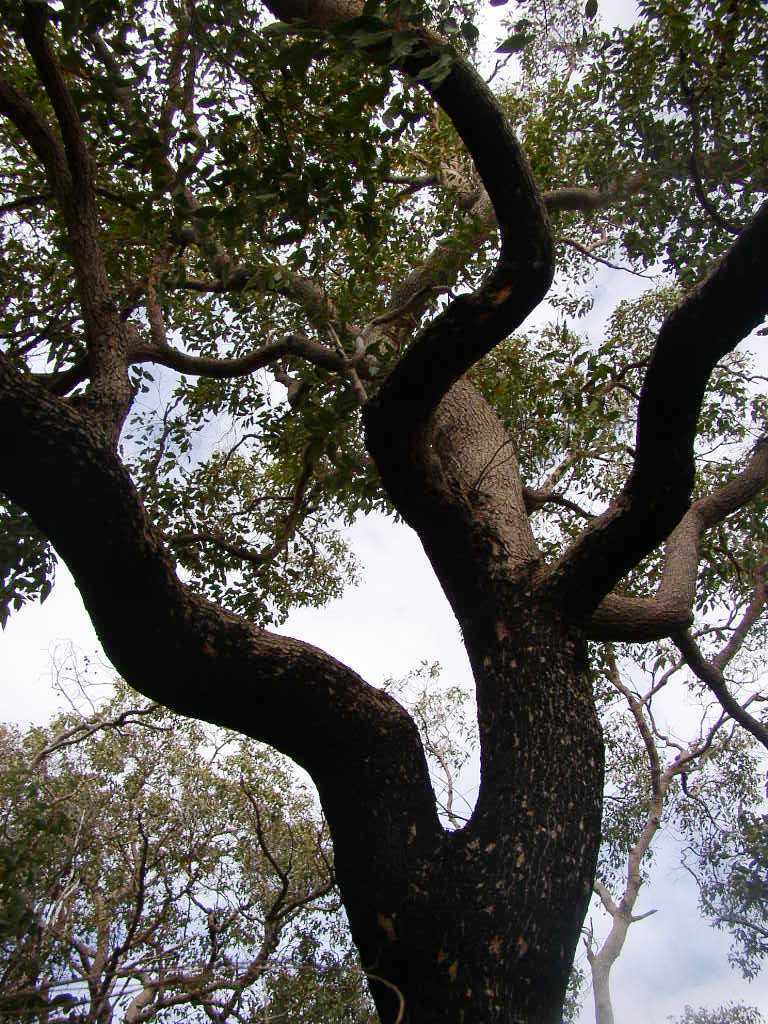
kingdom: Plantae
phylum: Tracheophyta
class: Magnoliopsida
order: Myrtales
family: Myrtaceae
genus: Corymbia
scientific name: Corymbia calophylla
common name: Marri
